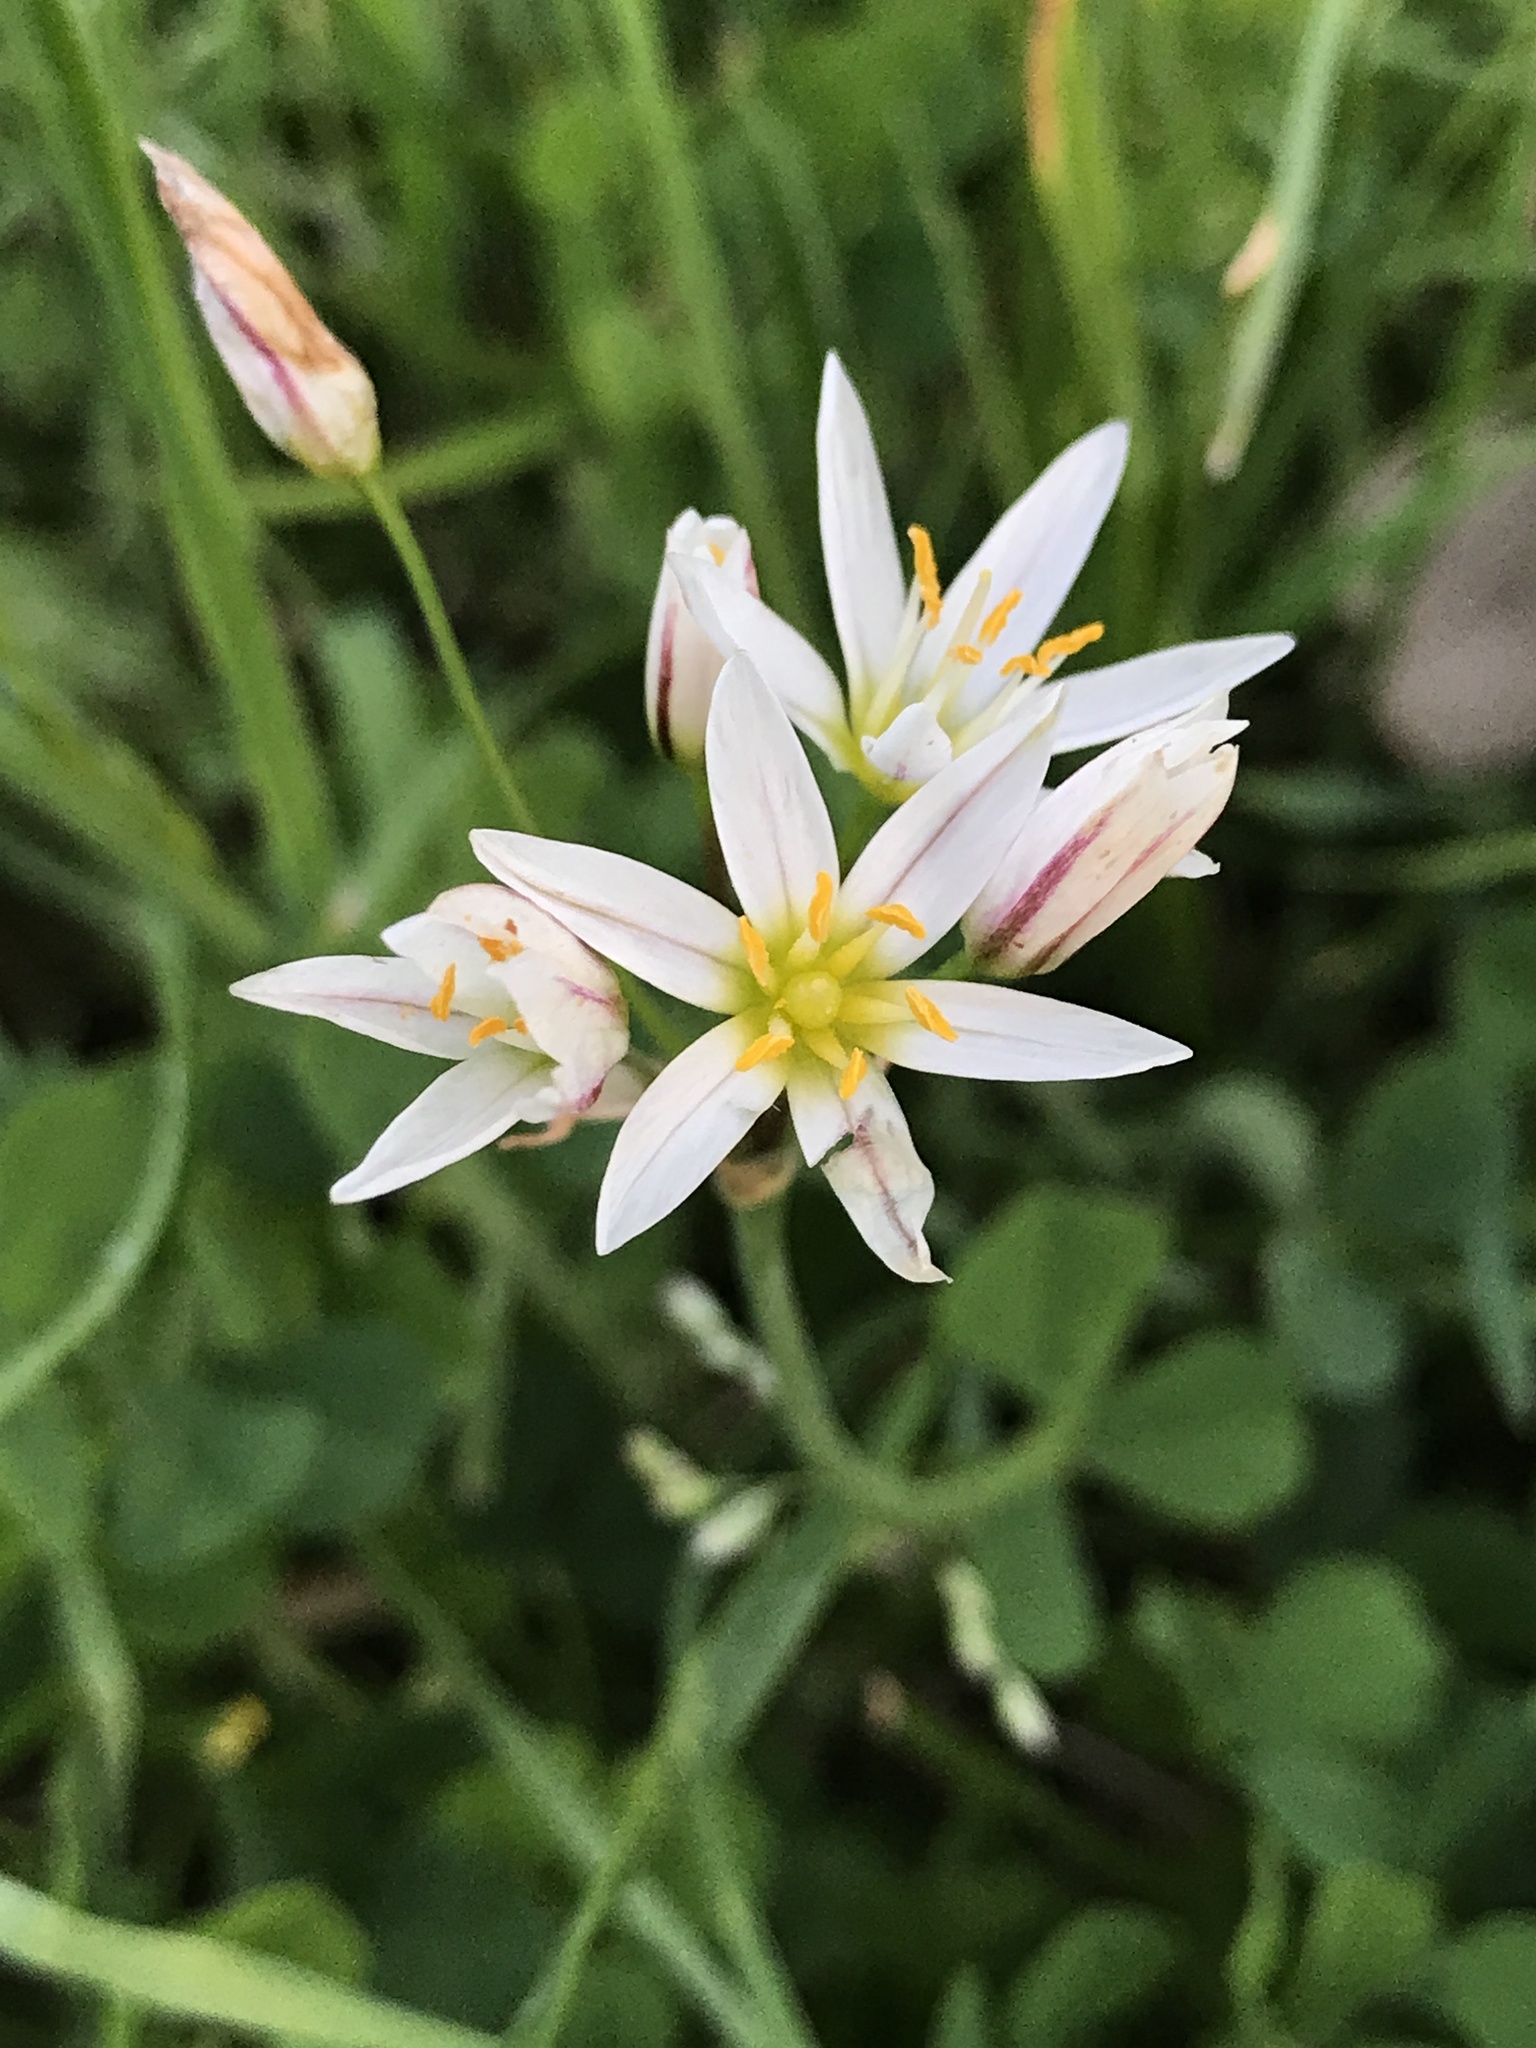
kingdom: Plantae
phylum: Tracheophyta
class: Liliopsida
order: Asparagales
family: Amaryllidaceae
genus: Nothoscordum
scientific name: Nothoscordum bivalve
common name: Crow-poison
